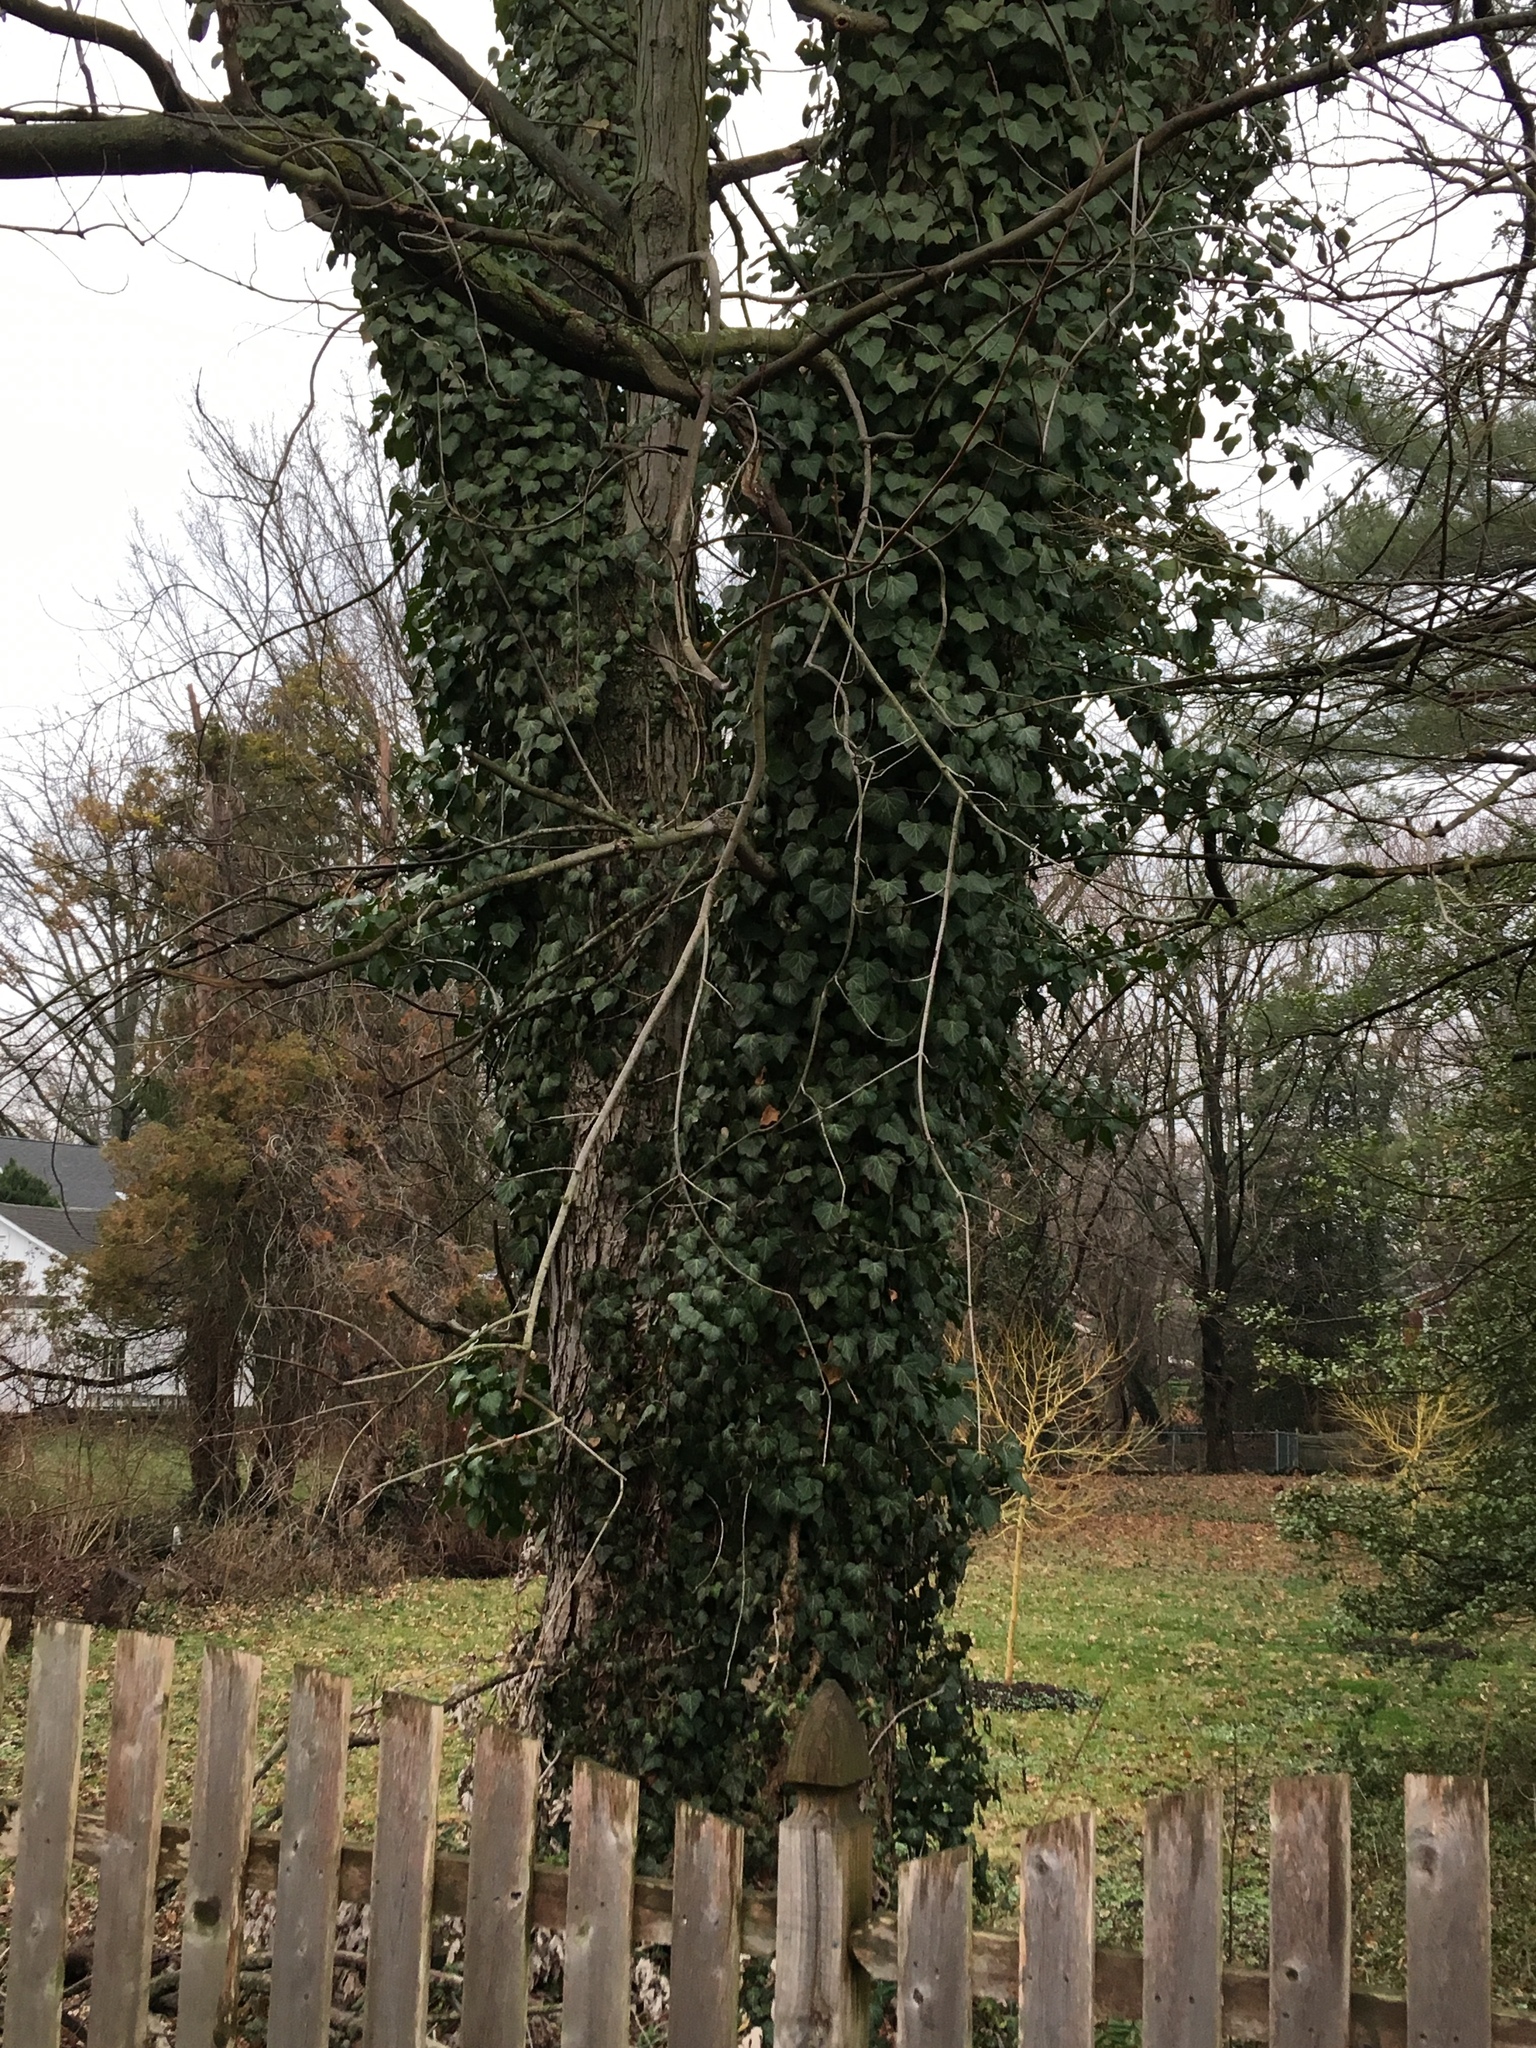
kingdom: Plantae
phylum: Tracheophyta
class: Magnoliopsida
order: Apiales
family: Araliaceae
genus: Hedera
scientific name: Hedera helix
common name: Ivy
